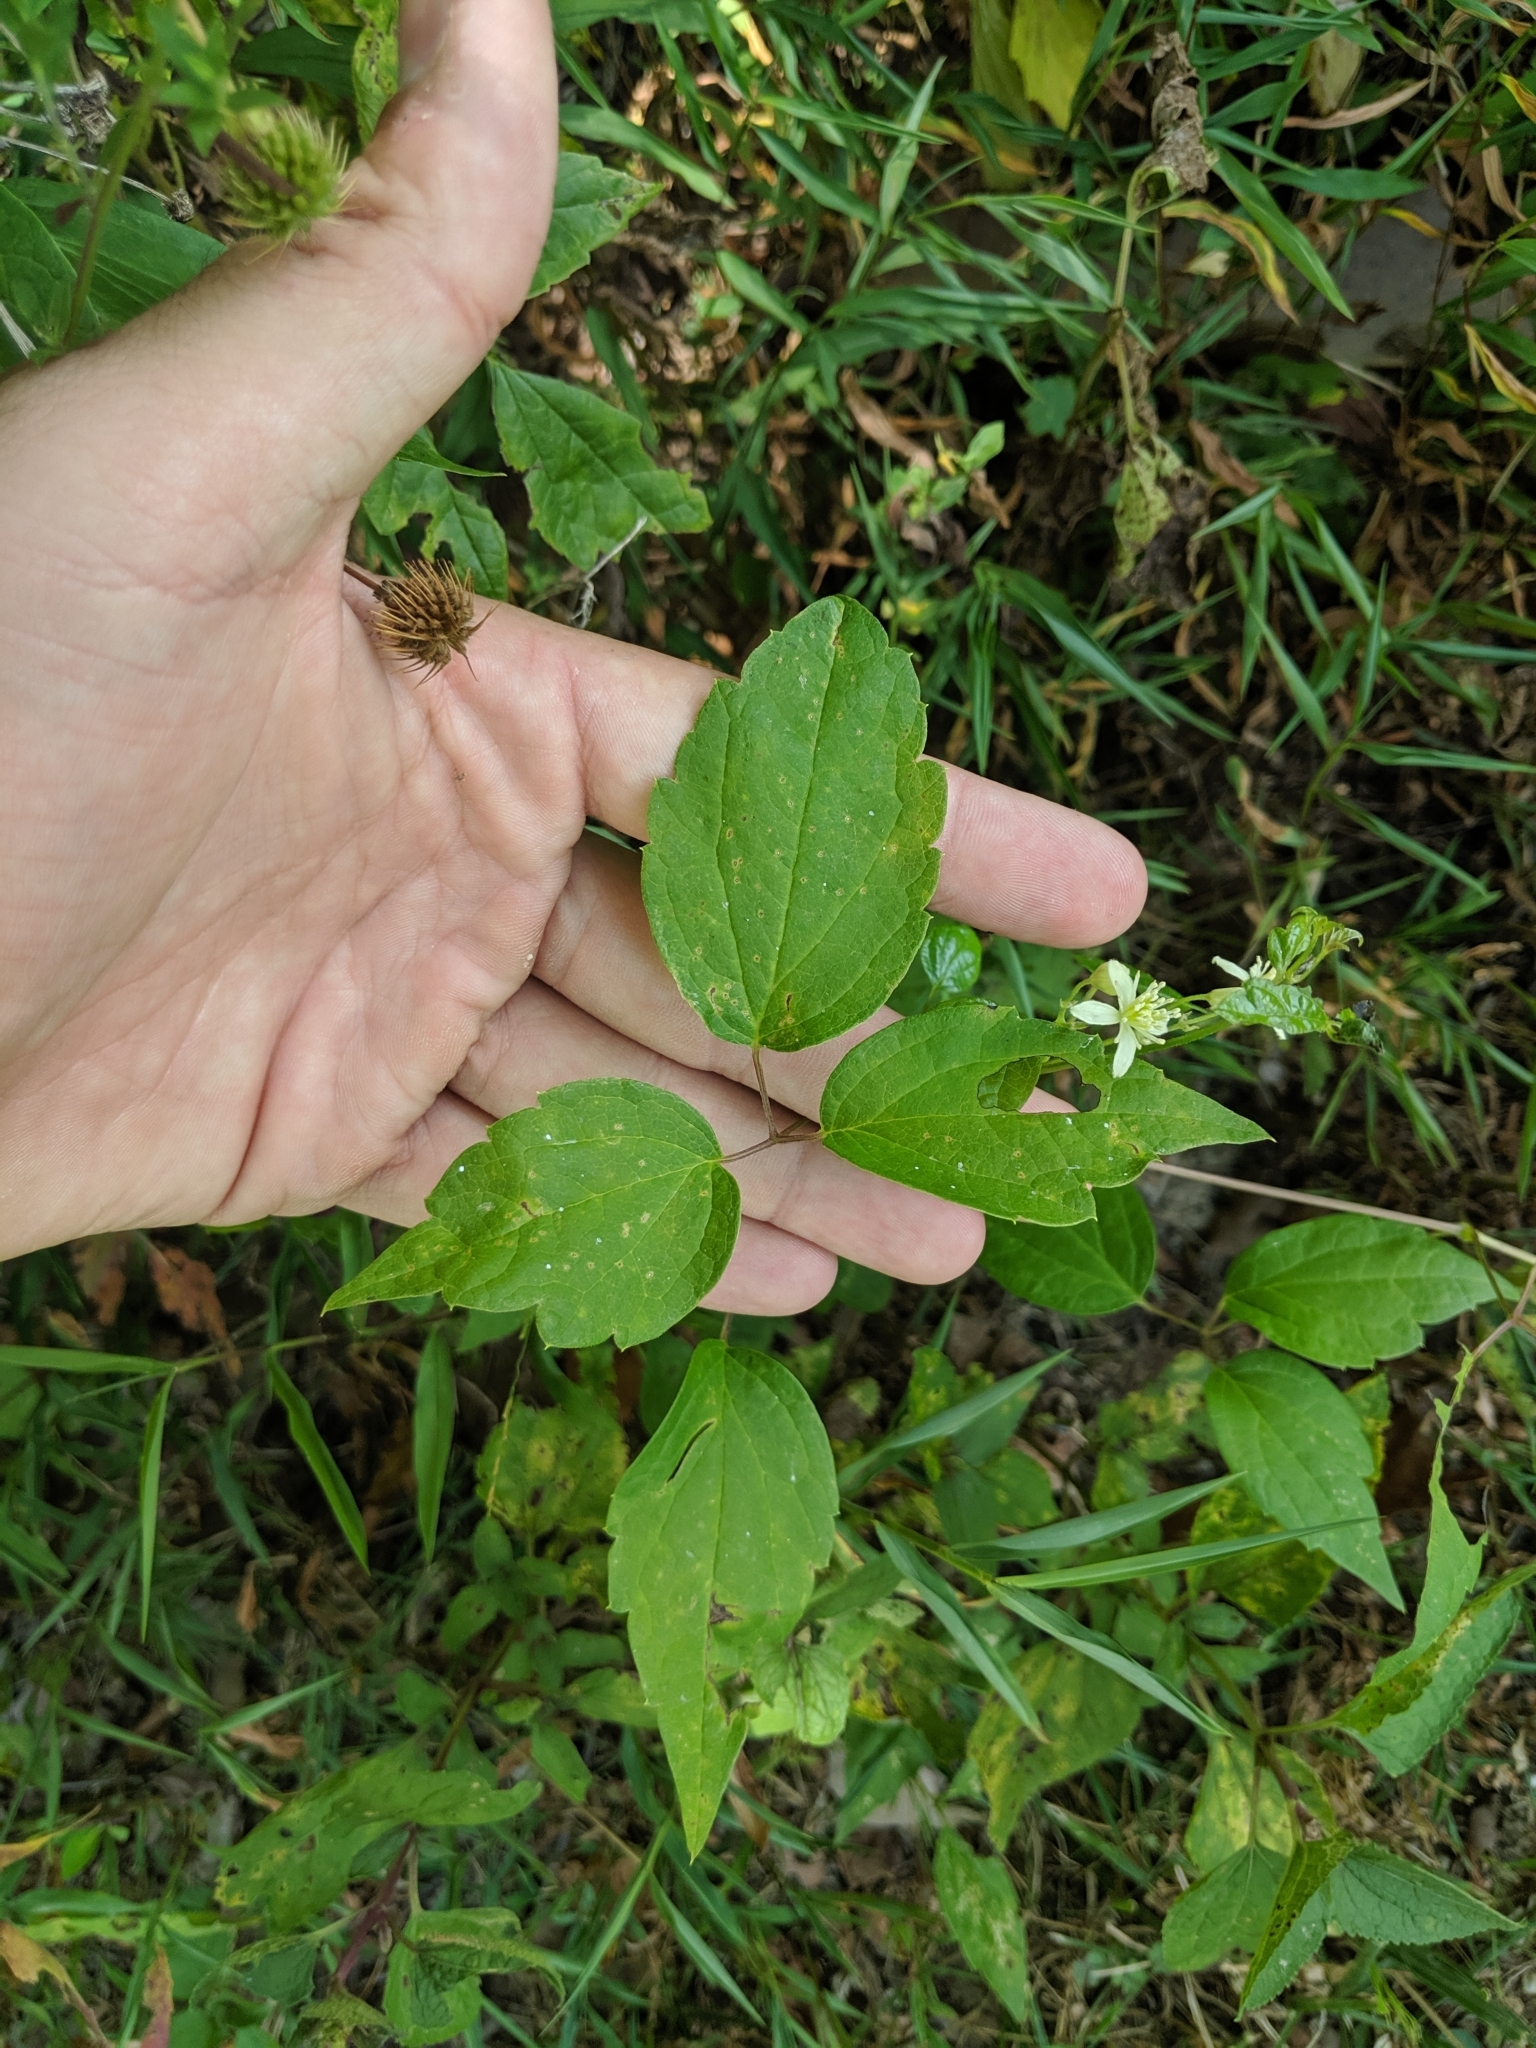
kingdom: Plantae
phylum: Tracheophyta
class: Magnoliopsida
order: Ranunculales
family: Ranunculaceae
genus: Clematis
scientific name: Clematis virginiana
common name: Virgin's-bower
